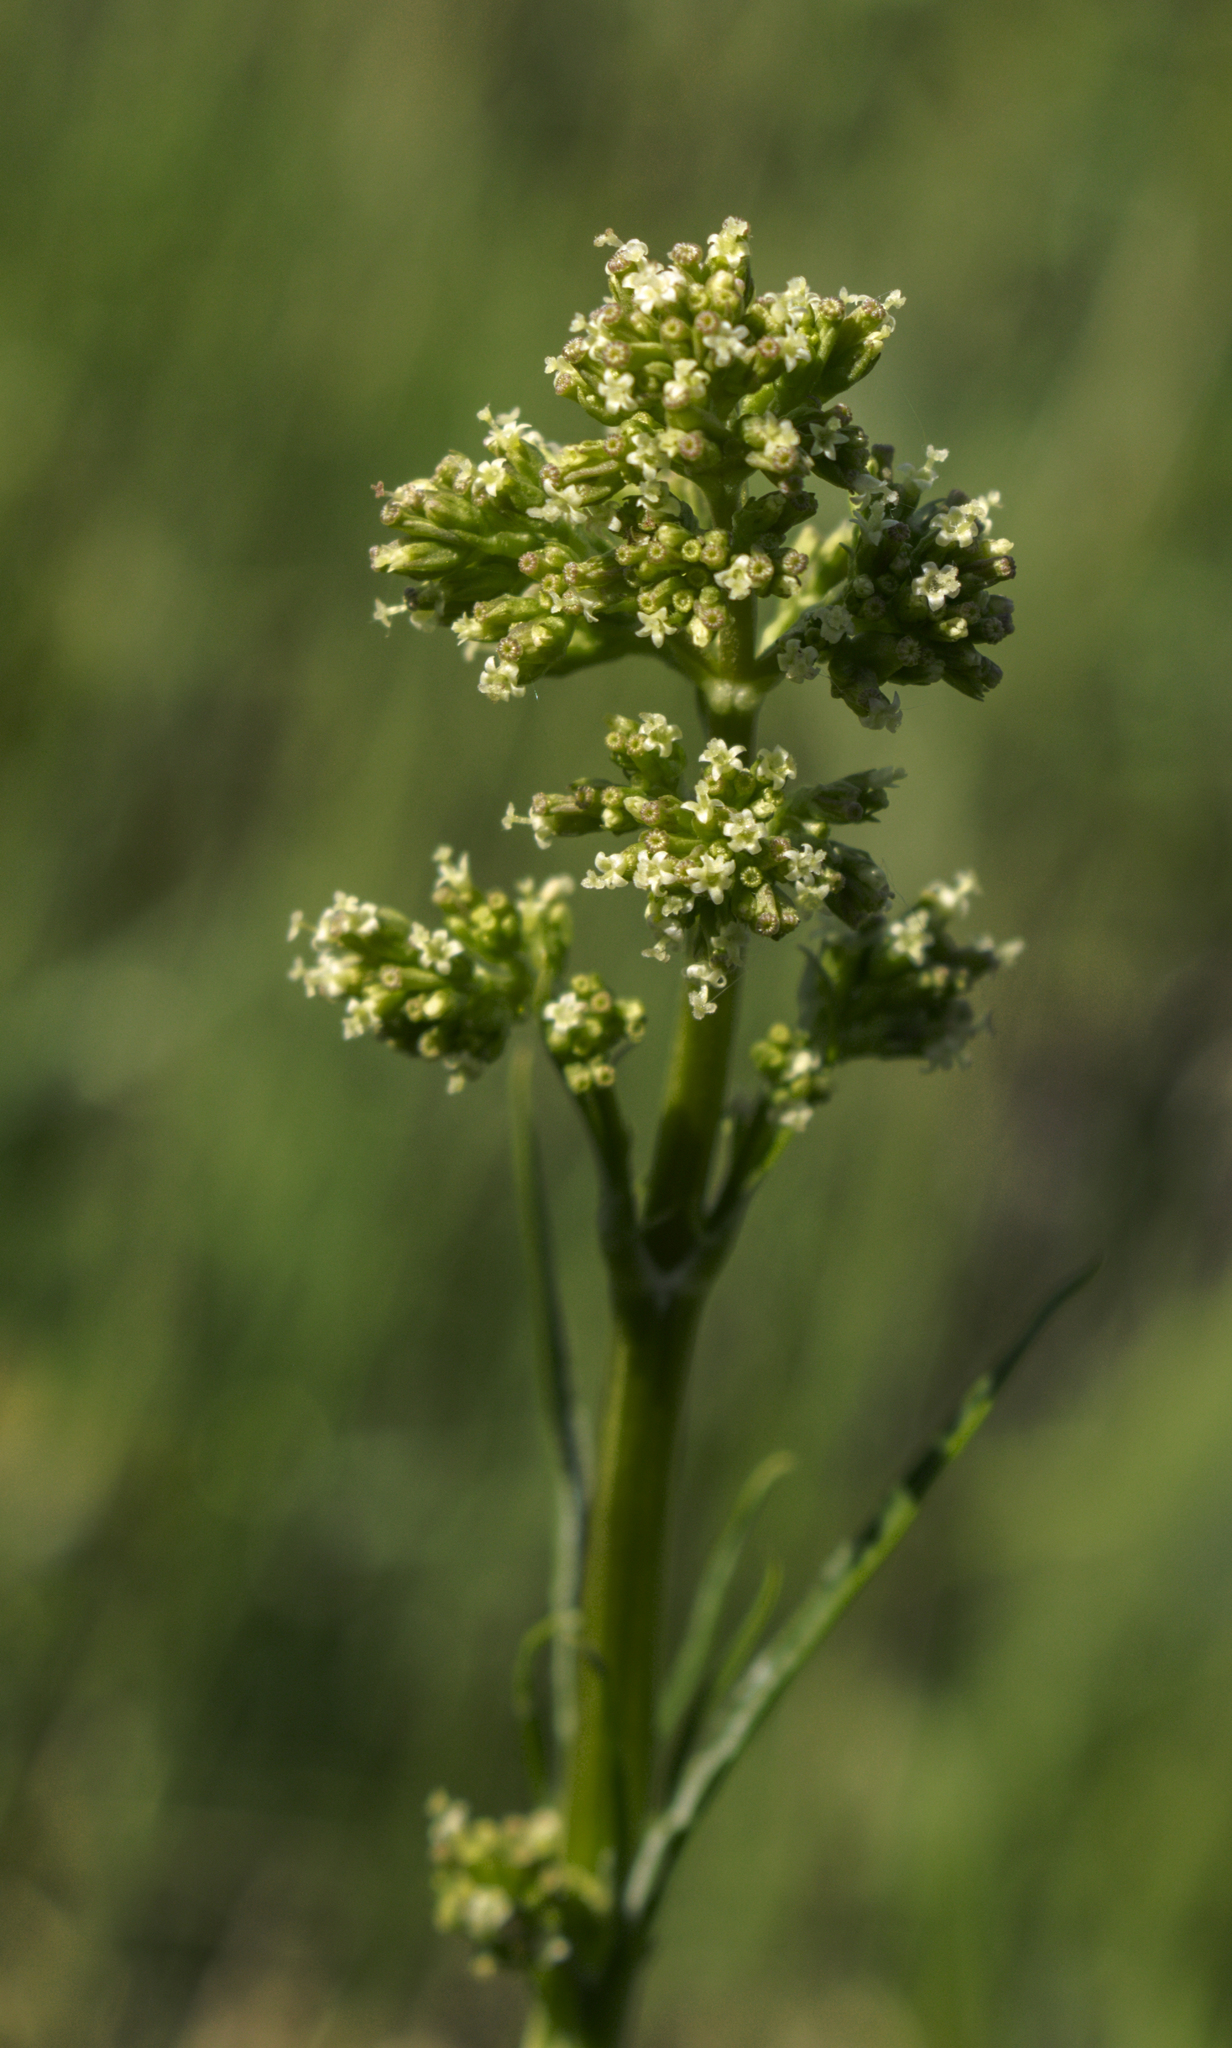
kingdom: Plantae
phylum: Tracheophyta
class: Magnoliopsida
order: Dipsacales
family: Caprifoliaceae
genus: Valeriana
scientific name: Valeriana edulis
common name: Taproot valerian
